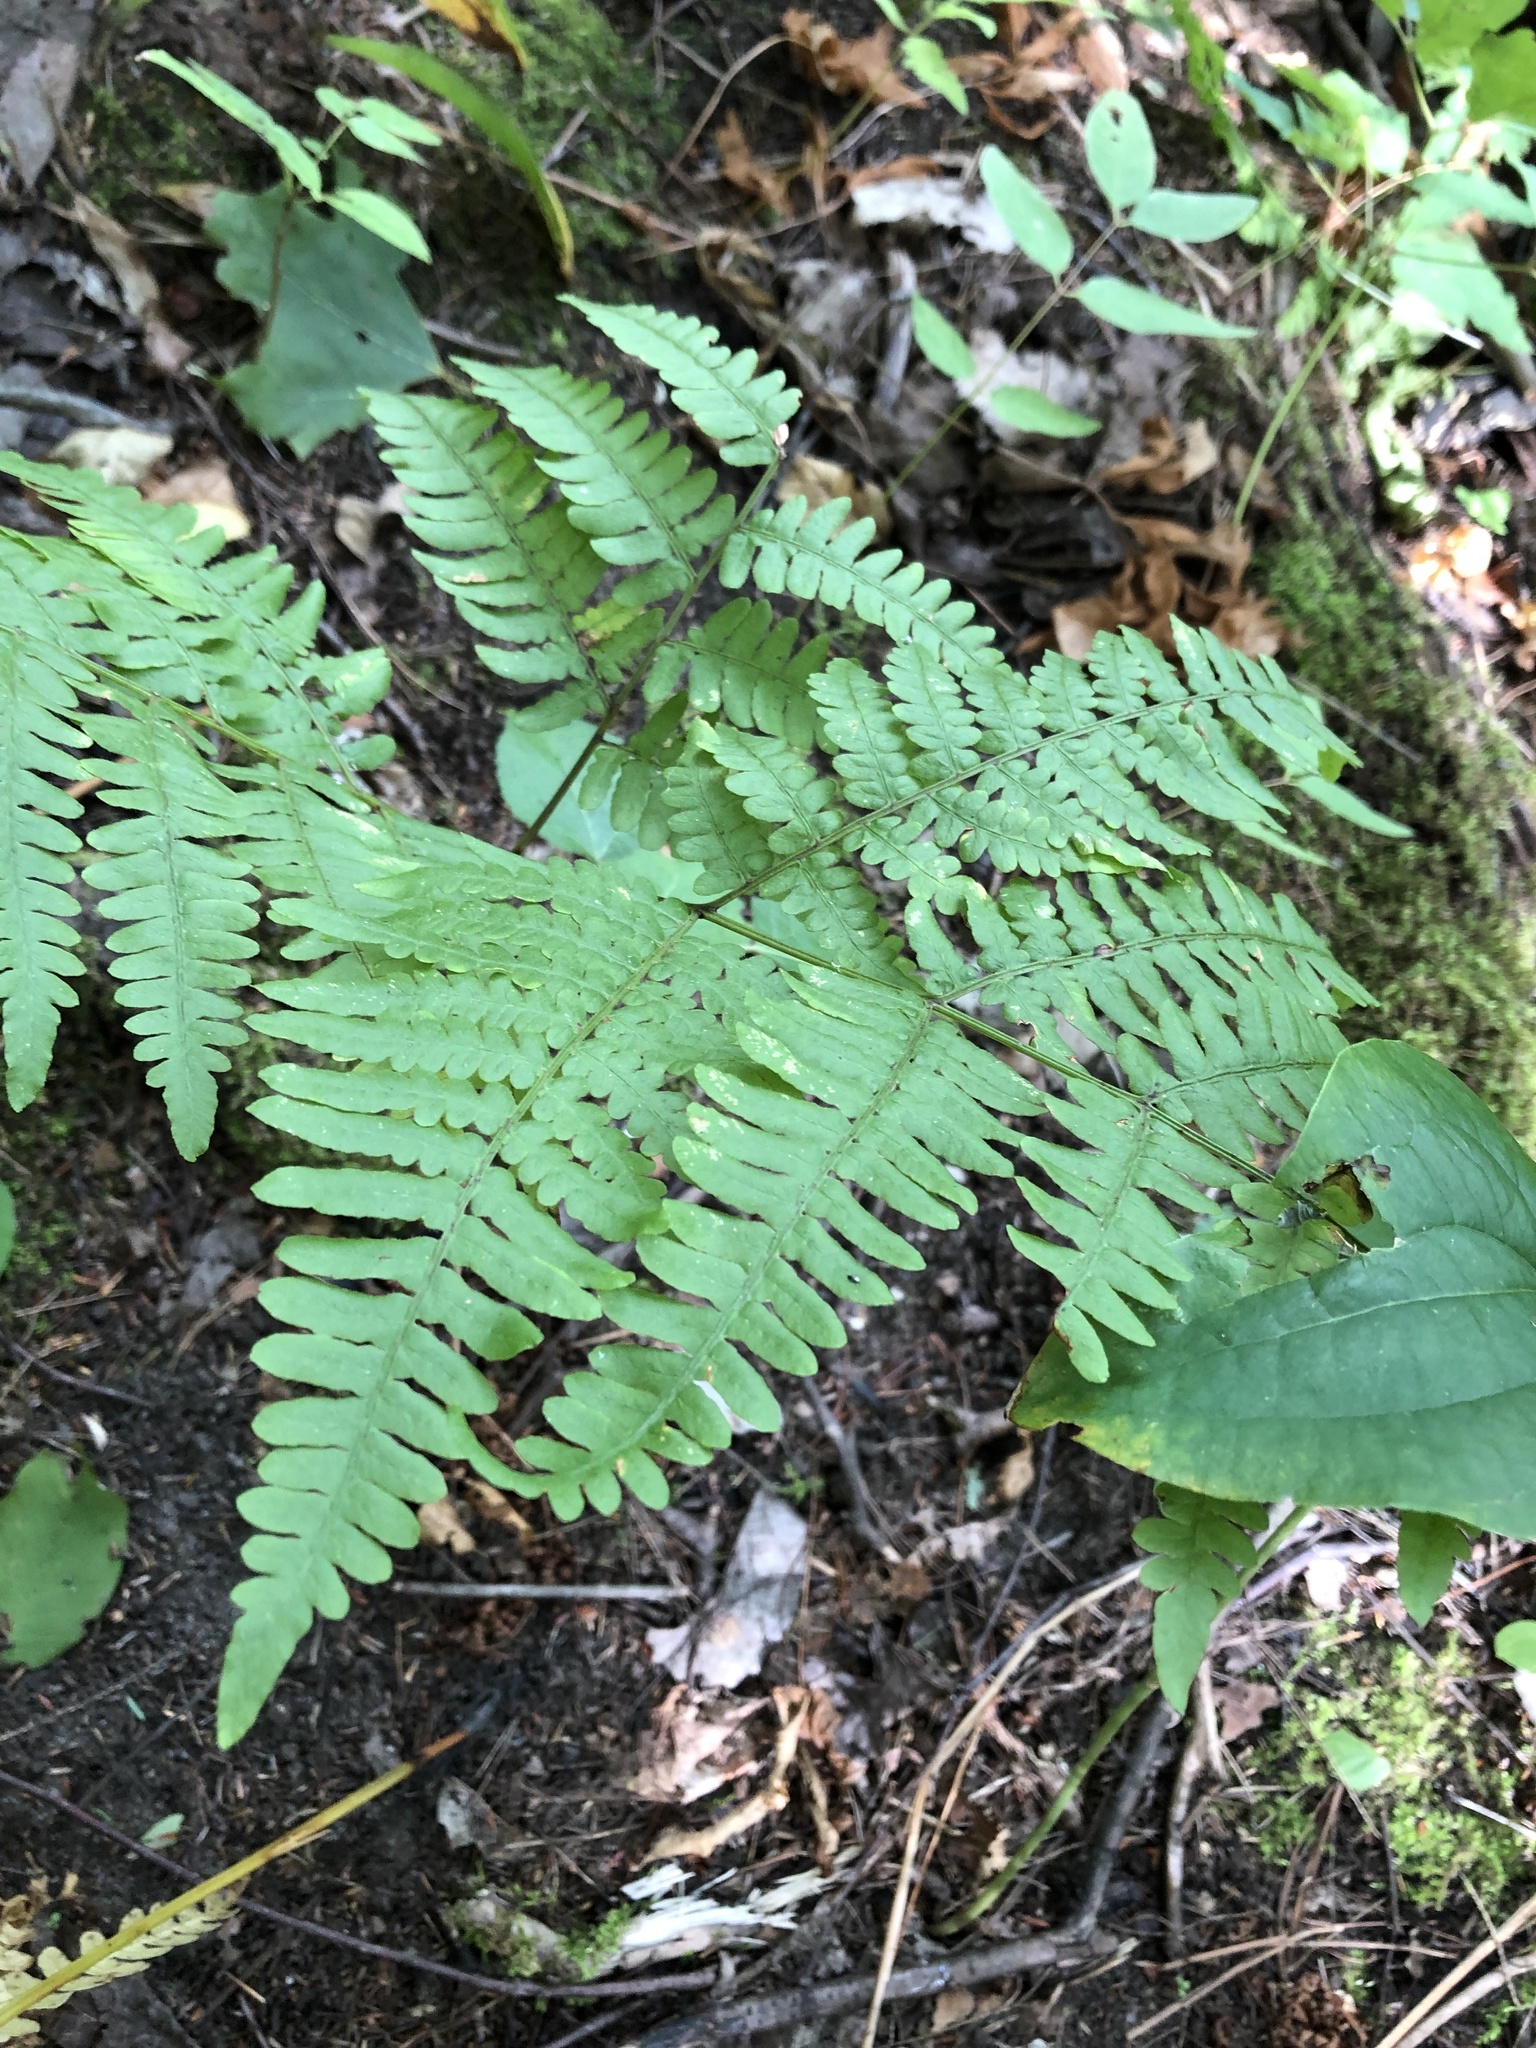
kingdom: Plantae
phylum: Tracheophyta
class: Polypodiopsida
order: Polypodiales
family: Dennstaedtiaceae
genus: Pteridium
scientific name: Pteridium aquilinum
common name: Bracken
